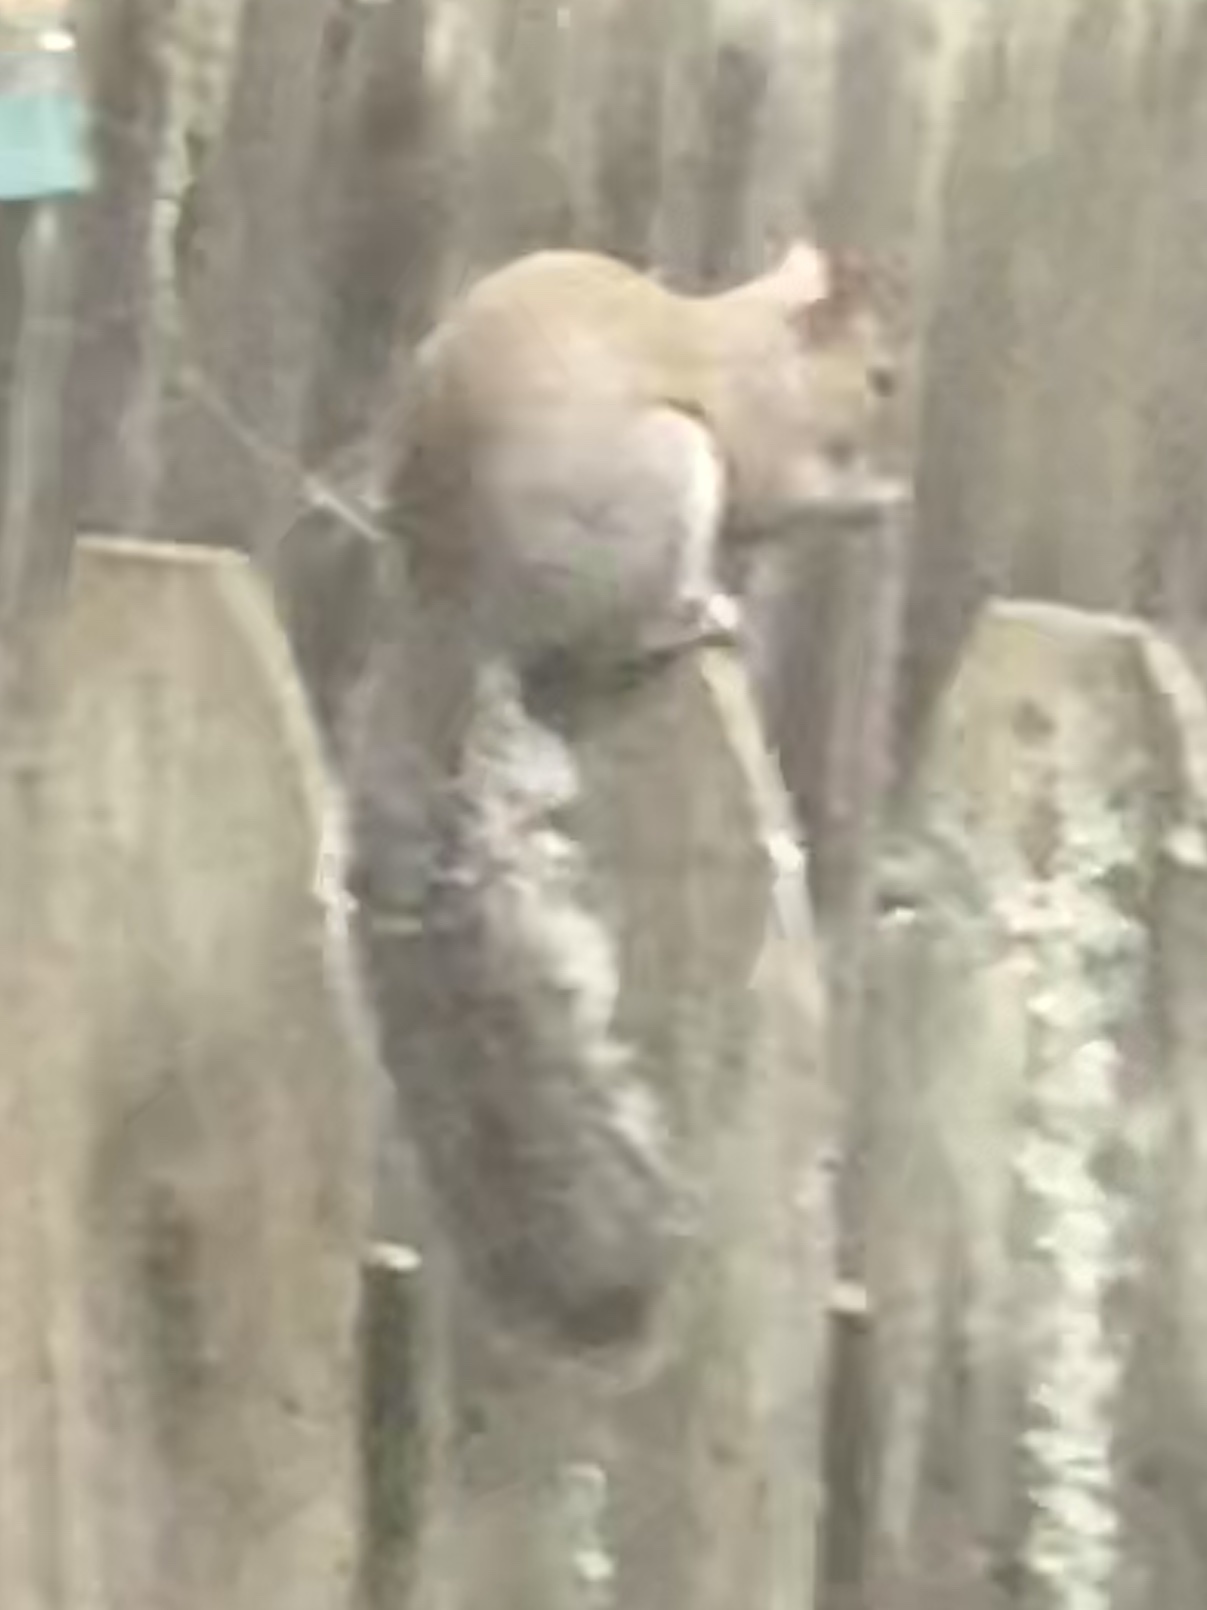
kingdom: Animalia
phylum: Chordata
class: Mammalia
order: Rodentia
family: Sciuridae
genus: Sciurus
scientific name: Sciurus carolinensis
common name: Eastern gray squirrel
